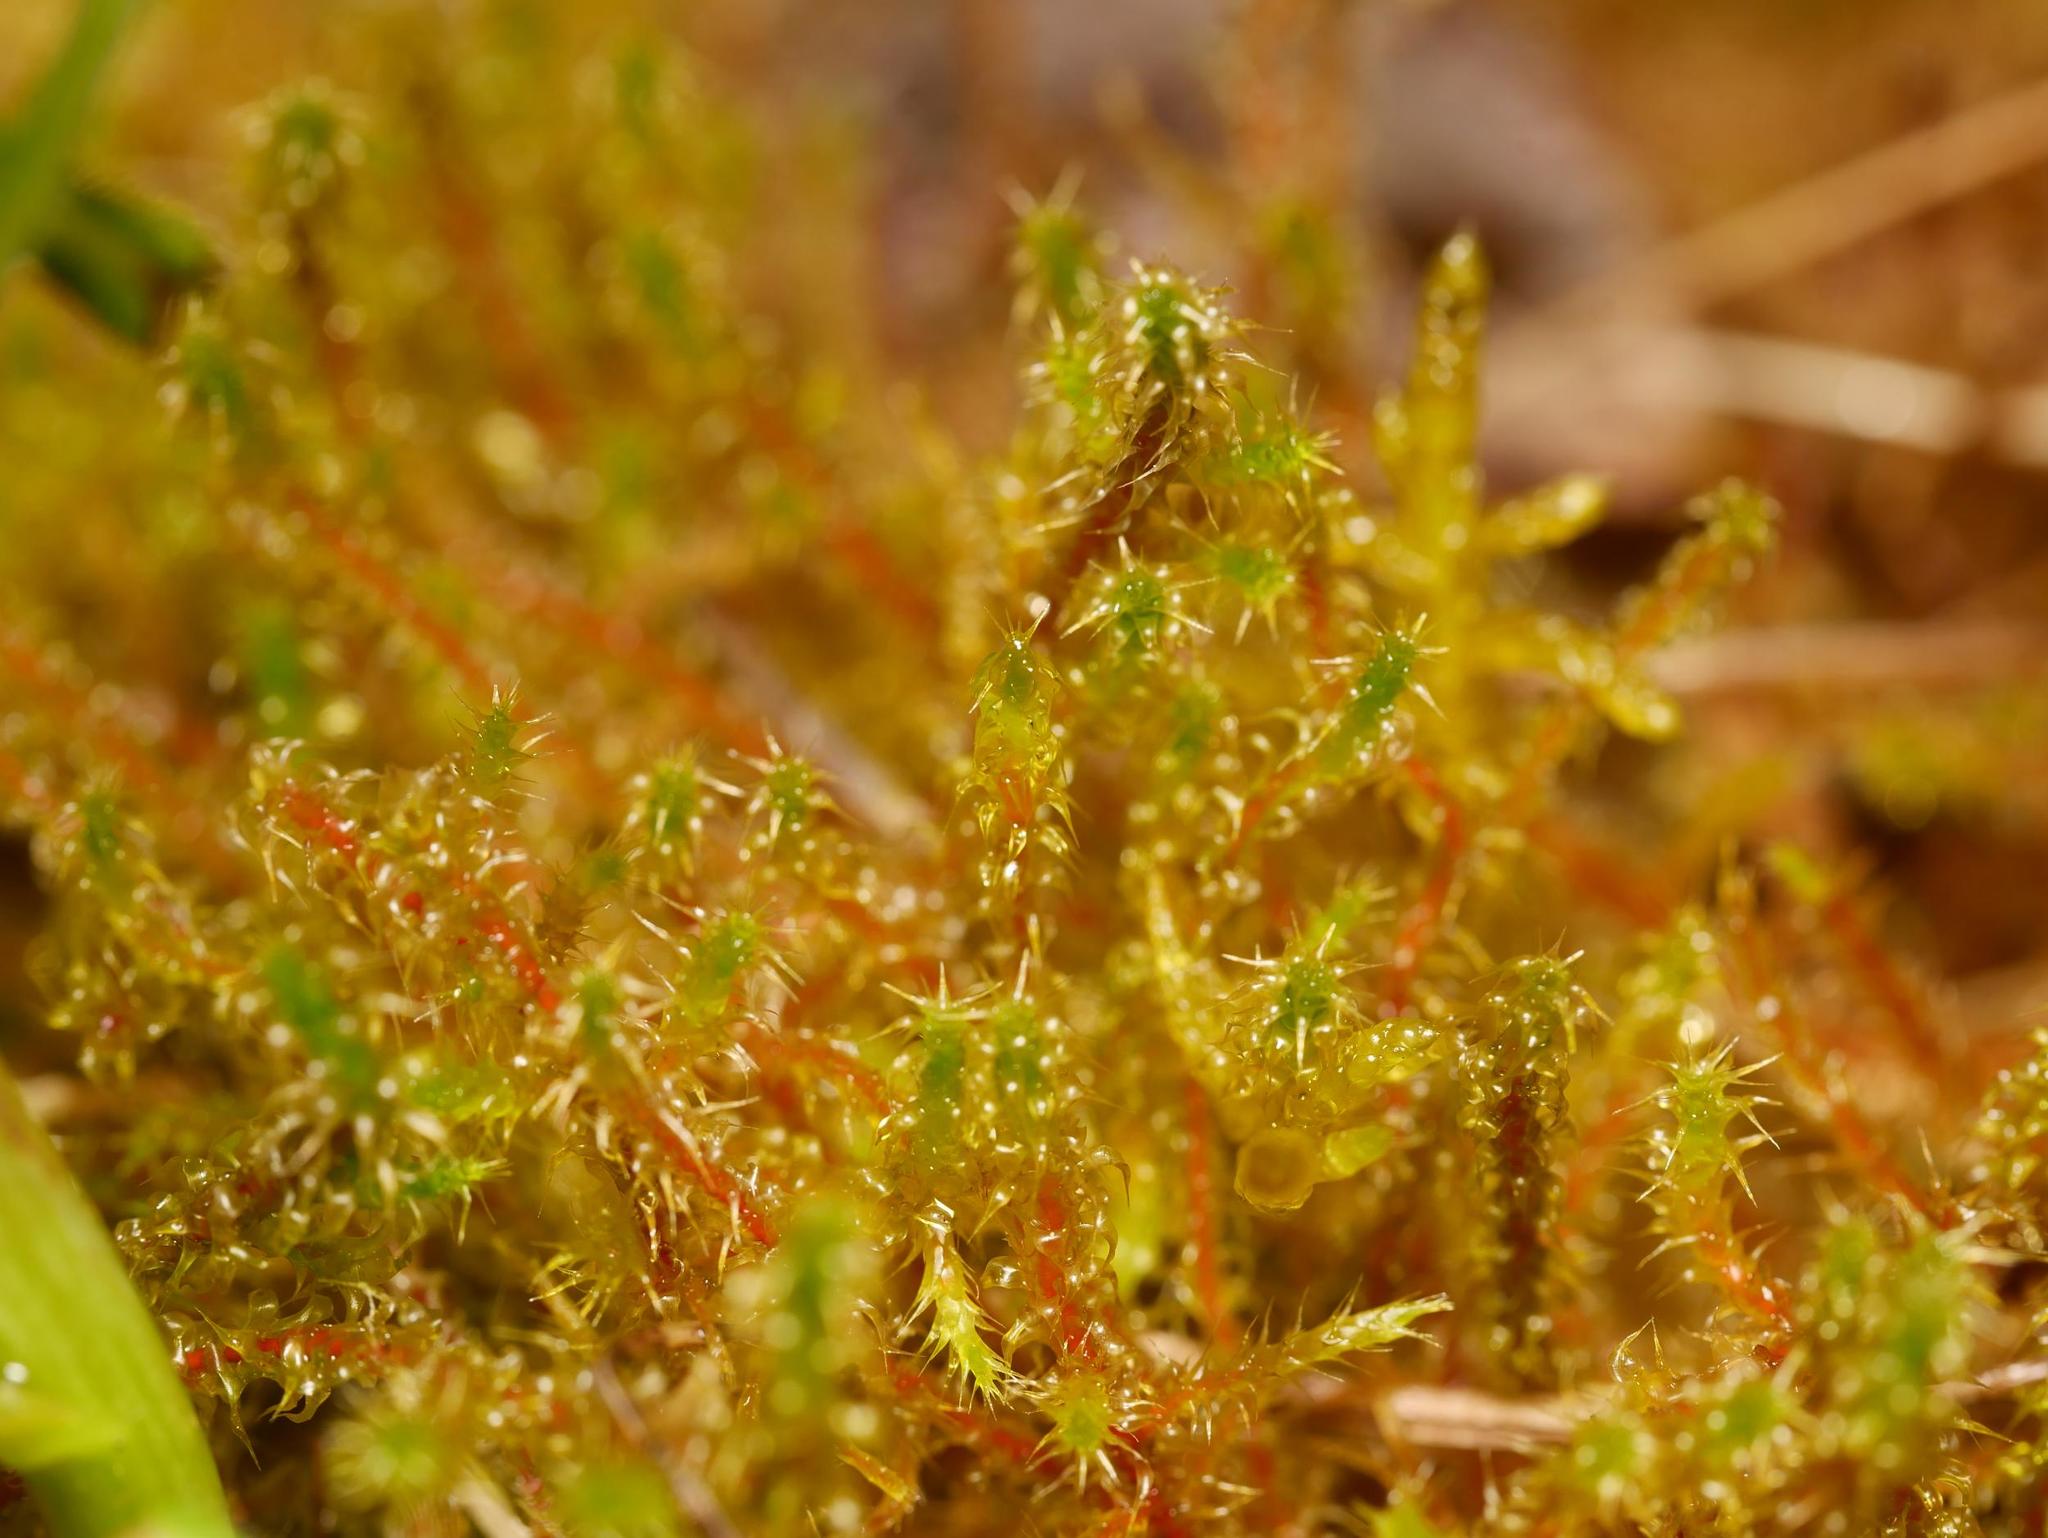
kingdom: Plantae
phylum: Bryophyta
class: Bryopsida
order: Hypnales
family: Hylocomiaceae
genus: Rhytidiadelphus
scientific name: Rhytidiadelphus squarrosus
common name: Springy turf-moss
